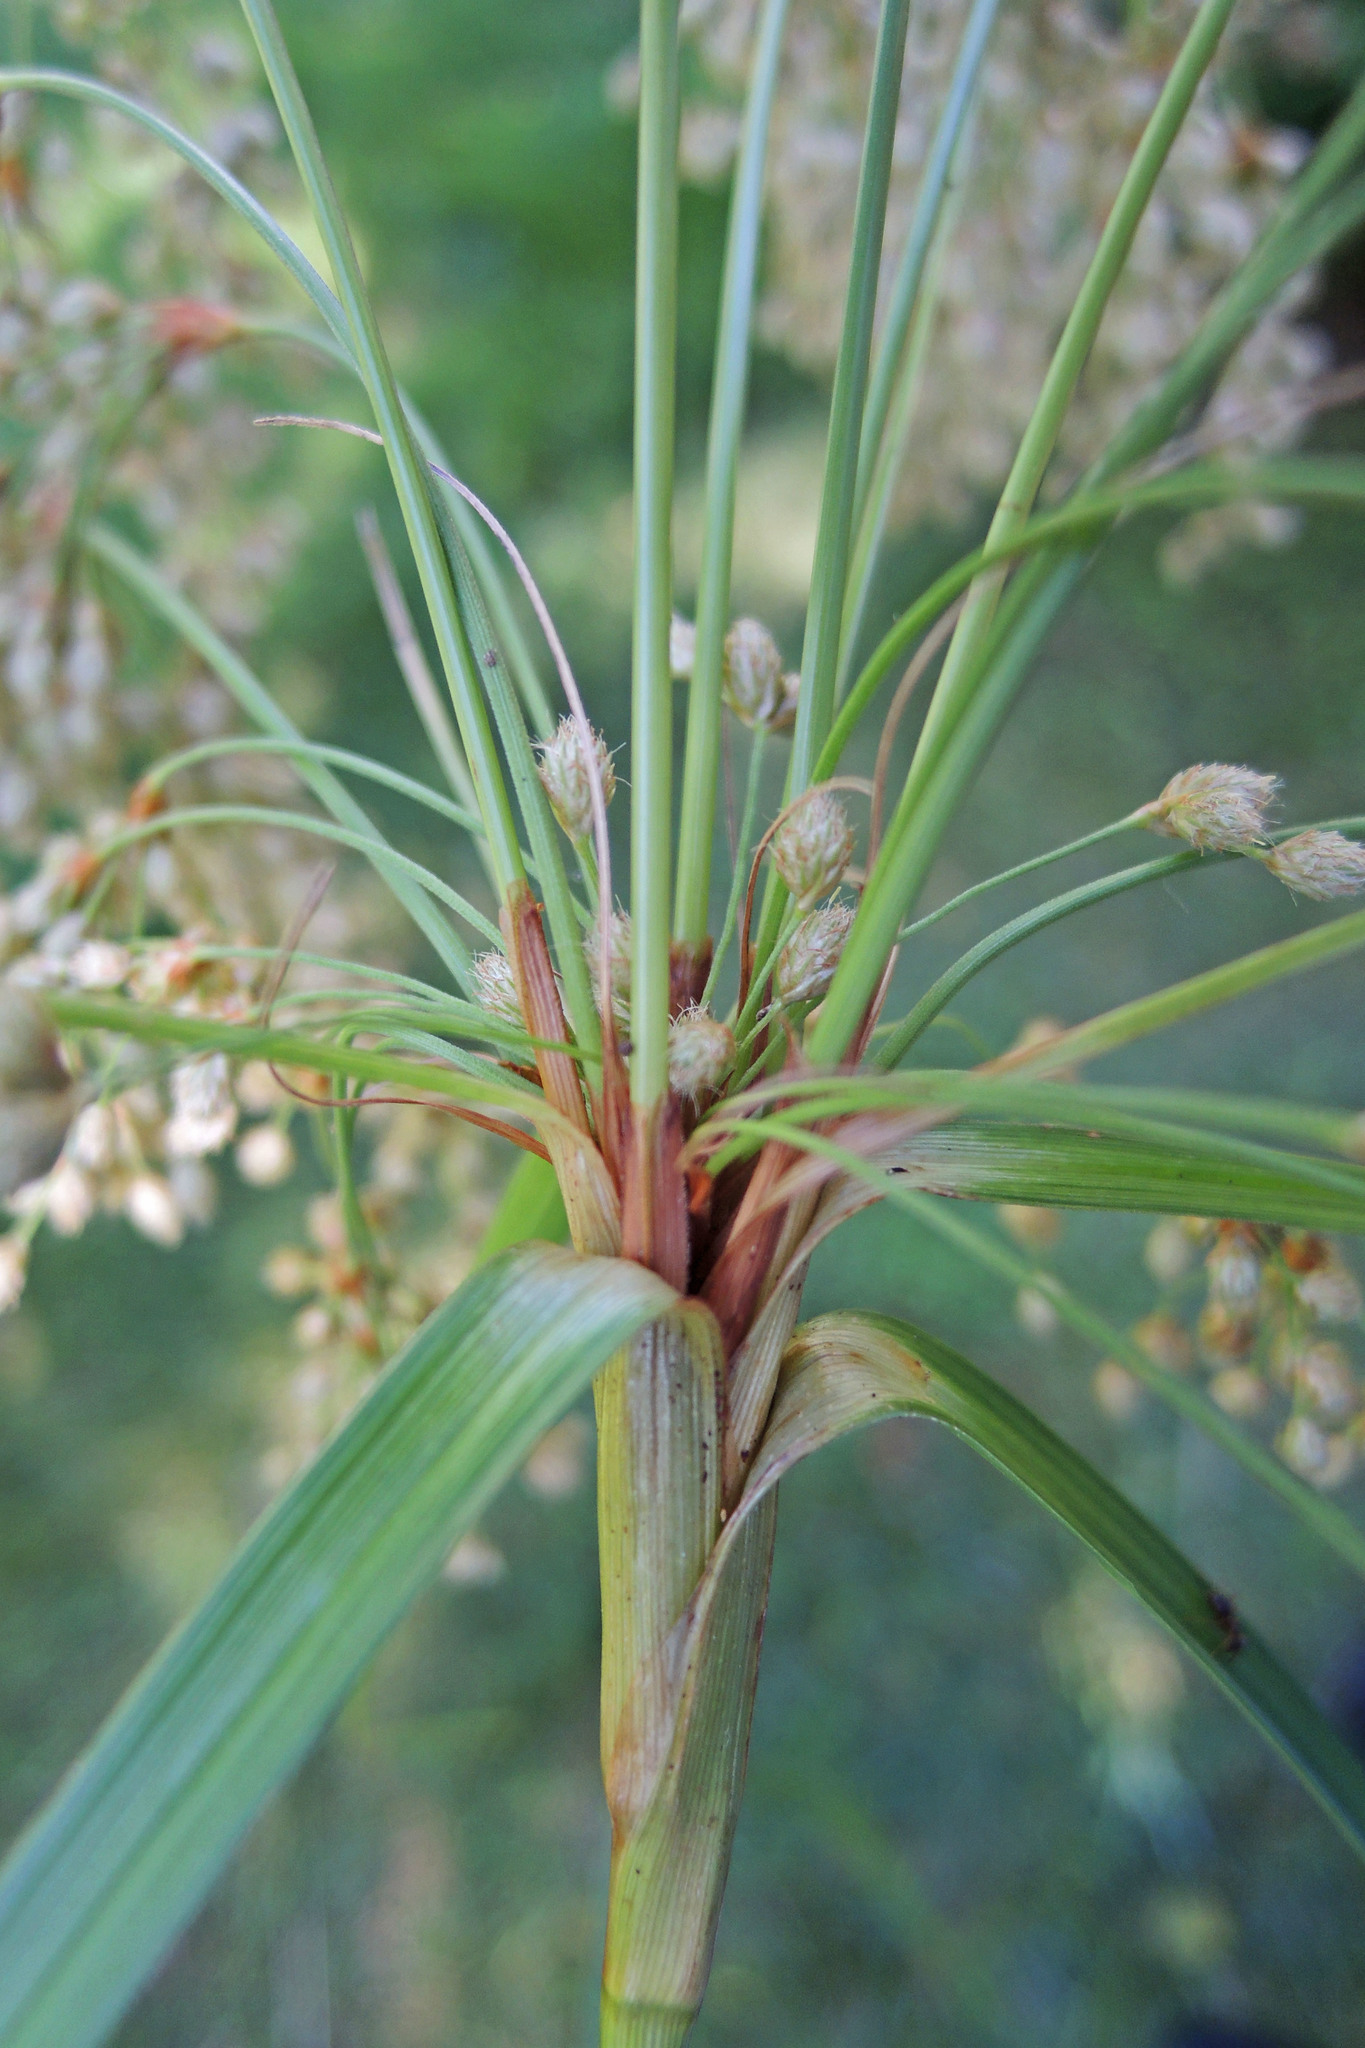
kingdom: Plantae
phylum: Tracheophyta
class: Liliopsida
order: Poales
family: Cyperaceae
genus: Scirpus
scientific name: Scirpus pedicellatus
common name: Pedicelled bulrush
